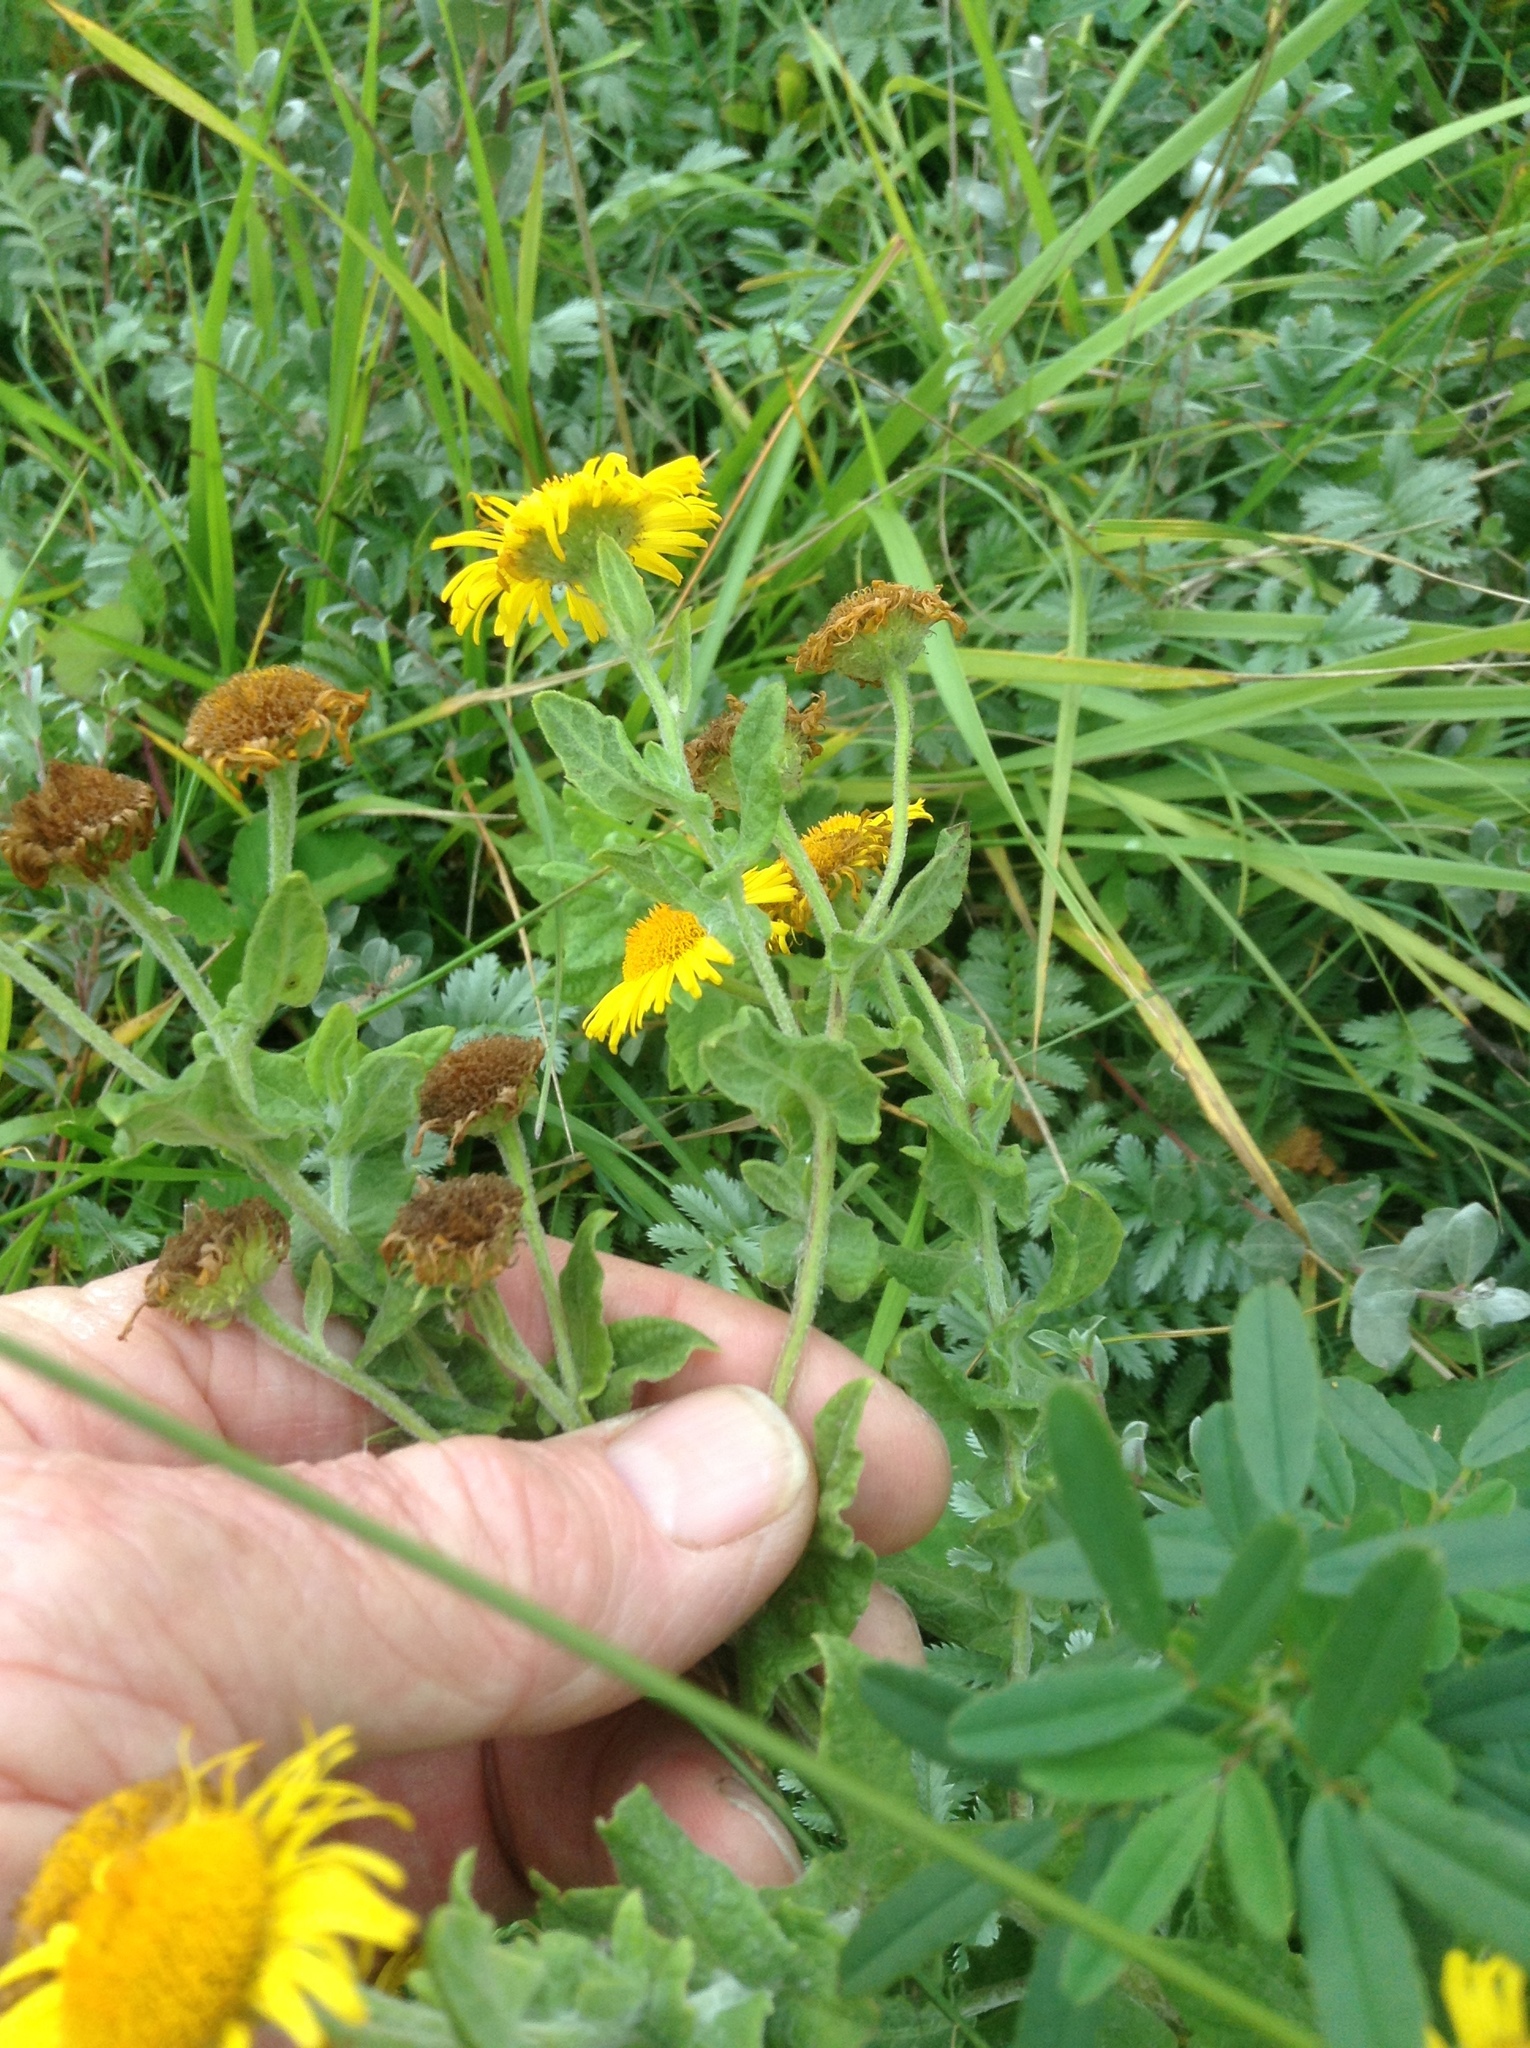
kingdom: Plantae
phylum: Tracheophyta
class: Magnoliopsida
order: Asterales
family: Asteraceae
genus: Pulicaria
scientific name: Pulicaria dysenterica
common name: Common fleabane
